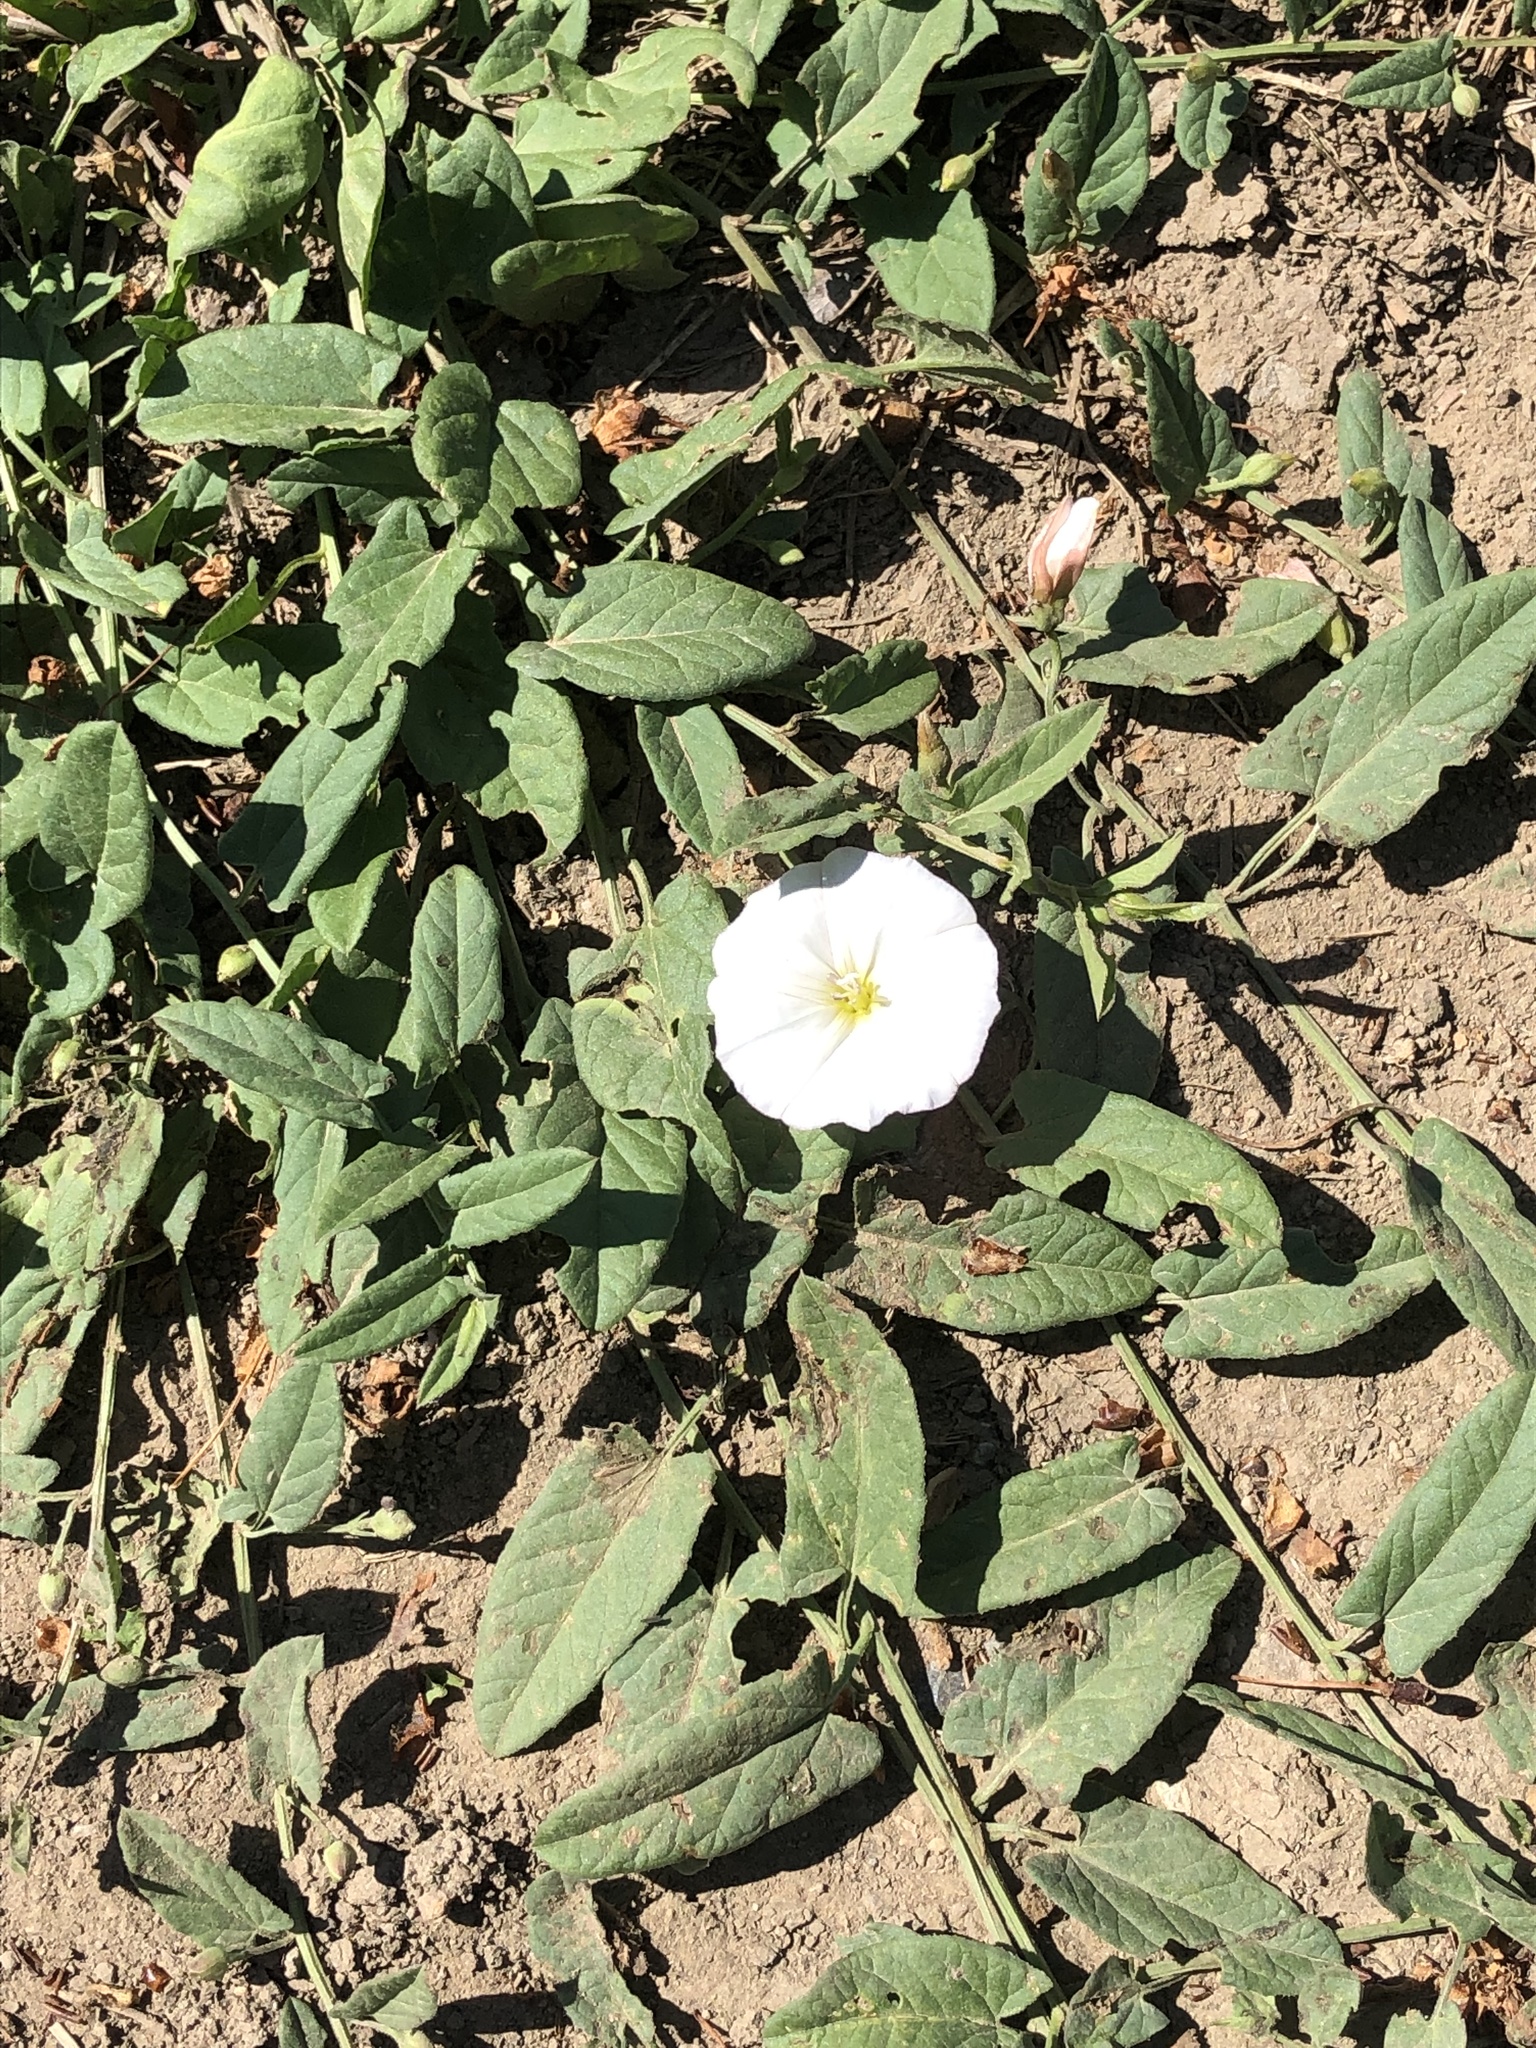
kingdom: Plantae
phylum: Tracheophyta
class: Magnoliopsida
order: Solanales
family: Convolvulaceae
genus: Convolvulus
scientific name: Convolvulus arvensis
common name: Field bindweed
